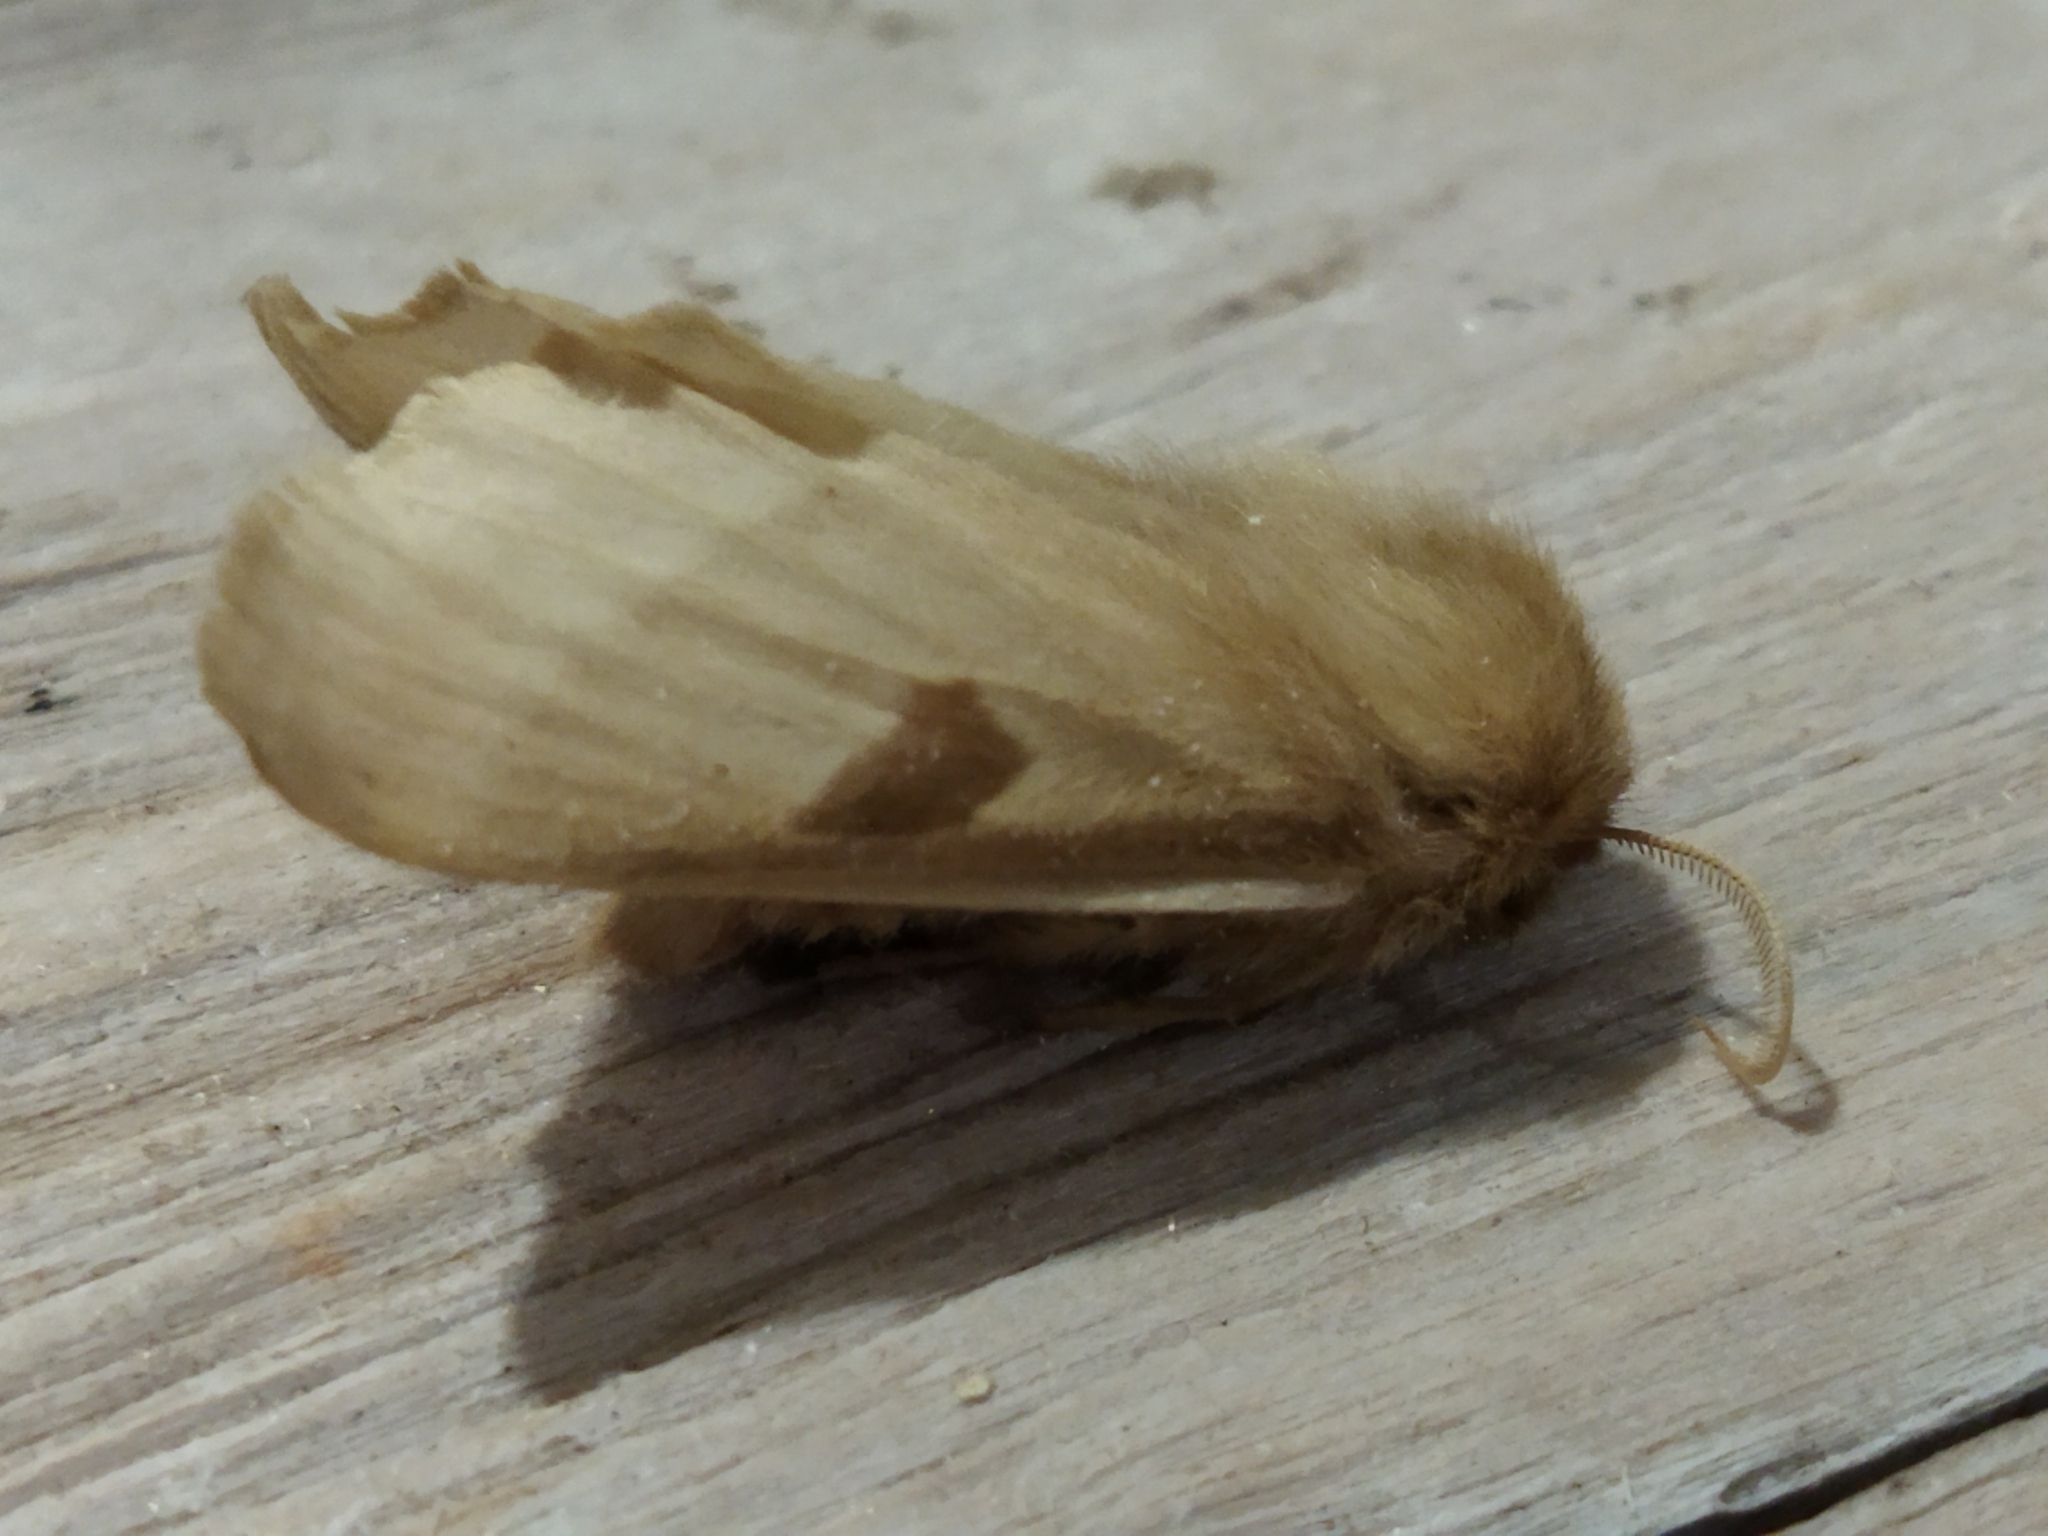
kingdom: Animalia
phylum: Arthropoda
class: Insecta
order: Lepidoptera
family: Brahmaeidae
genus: Lemonia
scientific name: Lemonia balcanica
